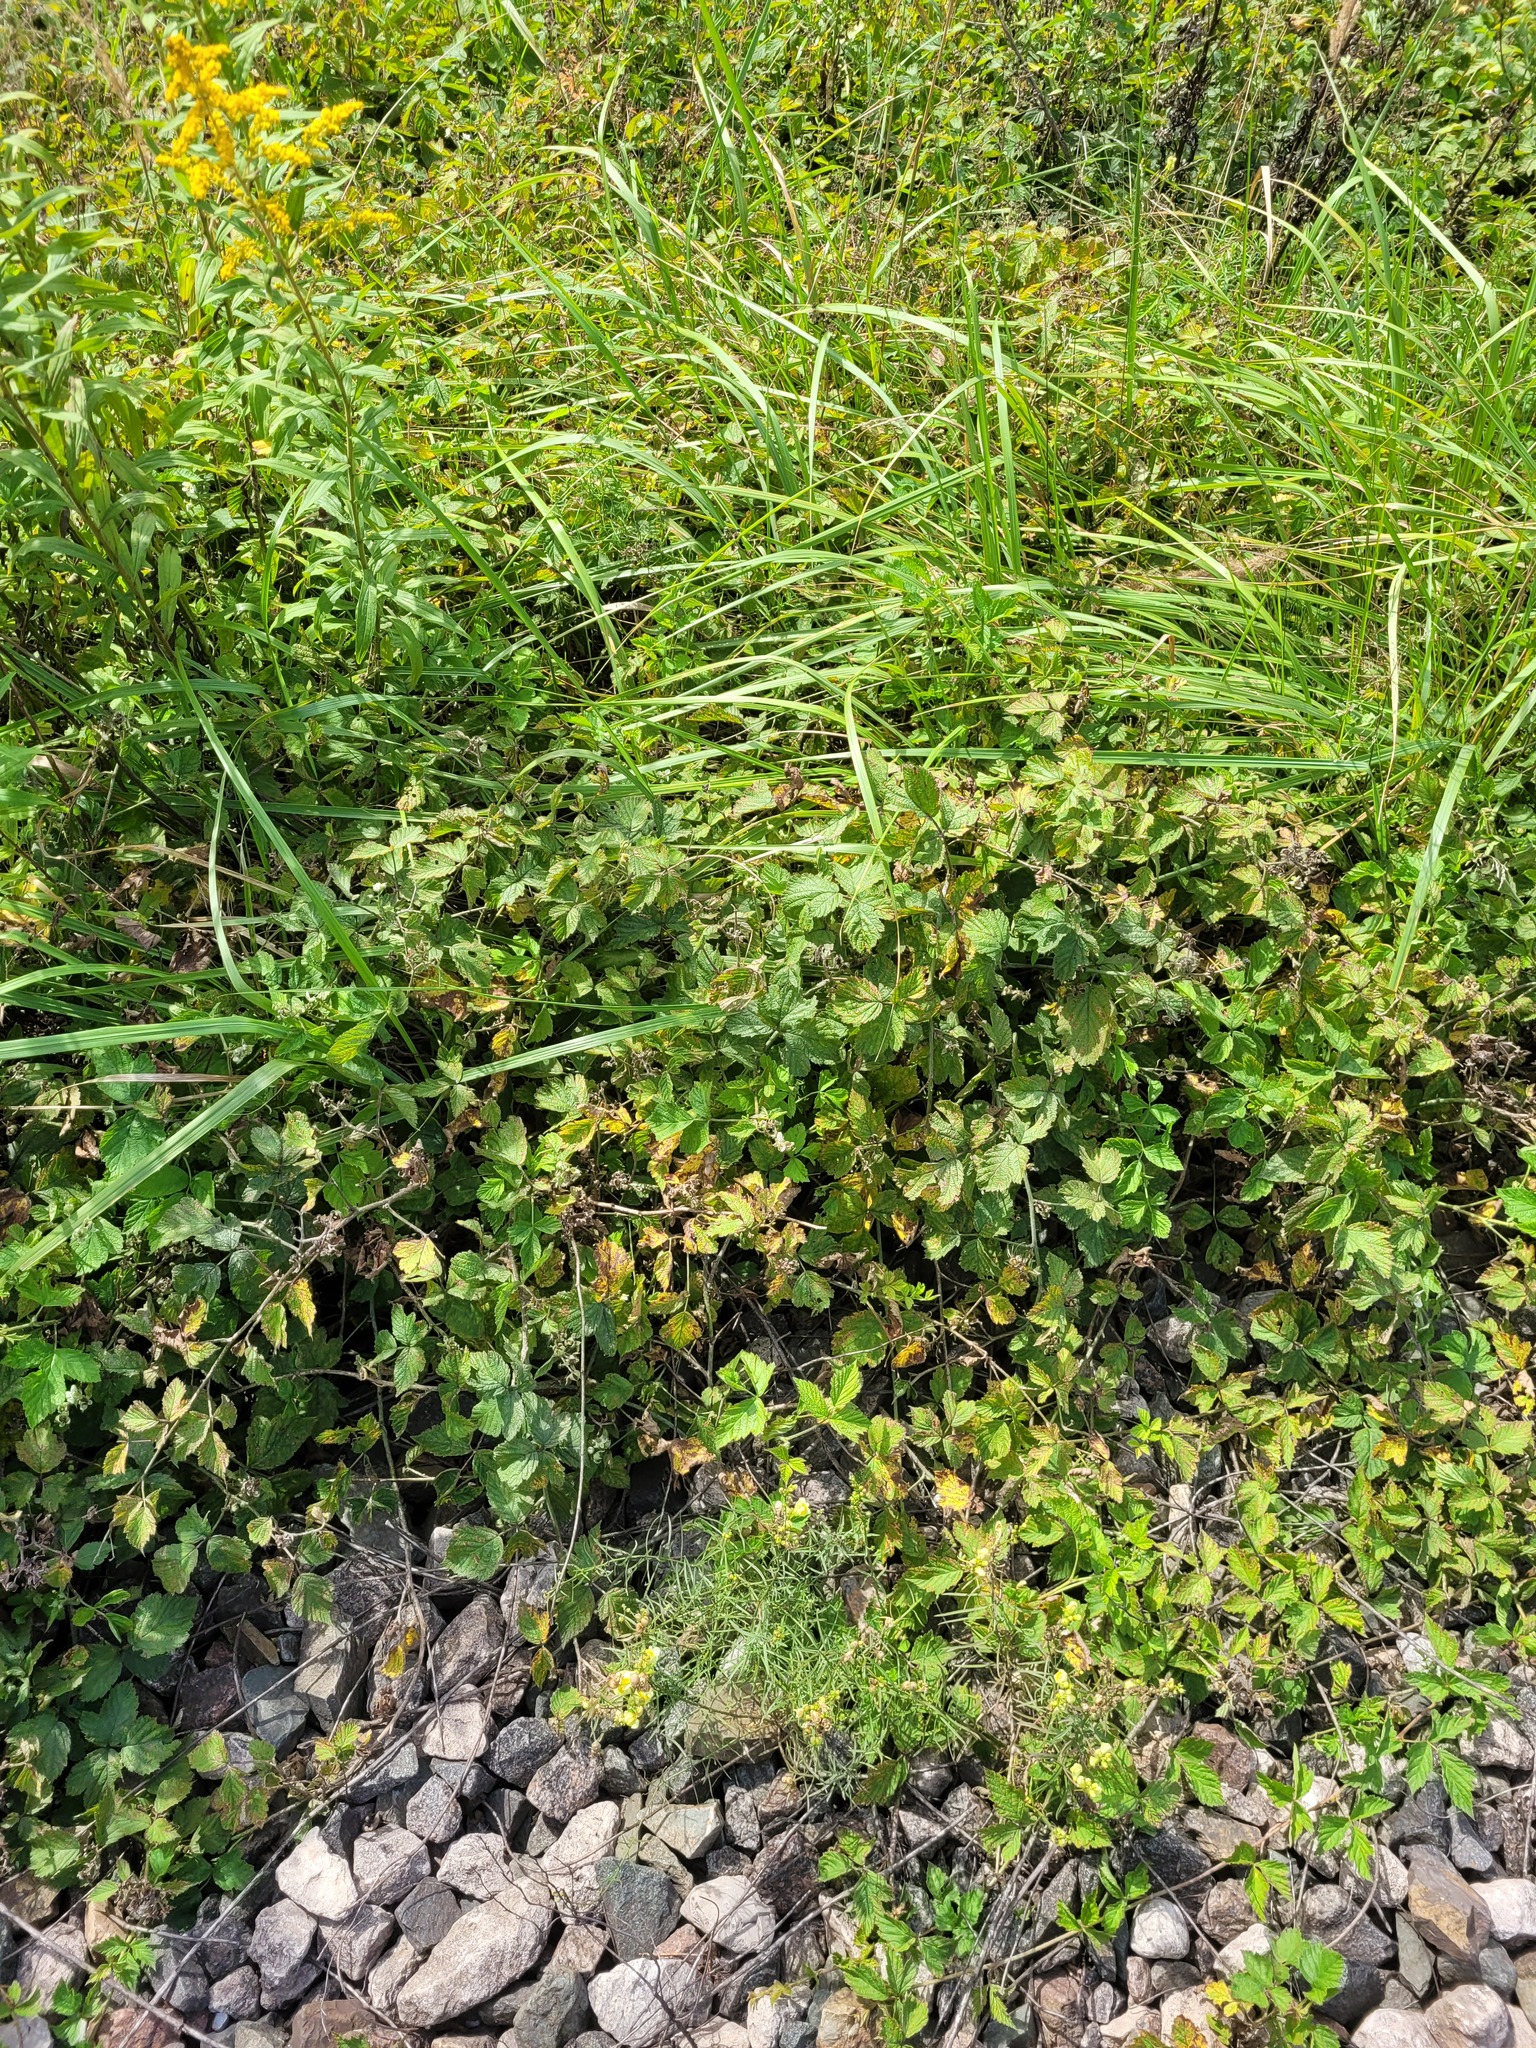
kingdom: Plantae
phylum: Tracheophyta
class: Magnoliopsida
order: Rosales
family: Rosaceae
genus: Rubus
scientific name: Rubus caesius
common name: Dewberry
